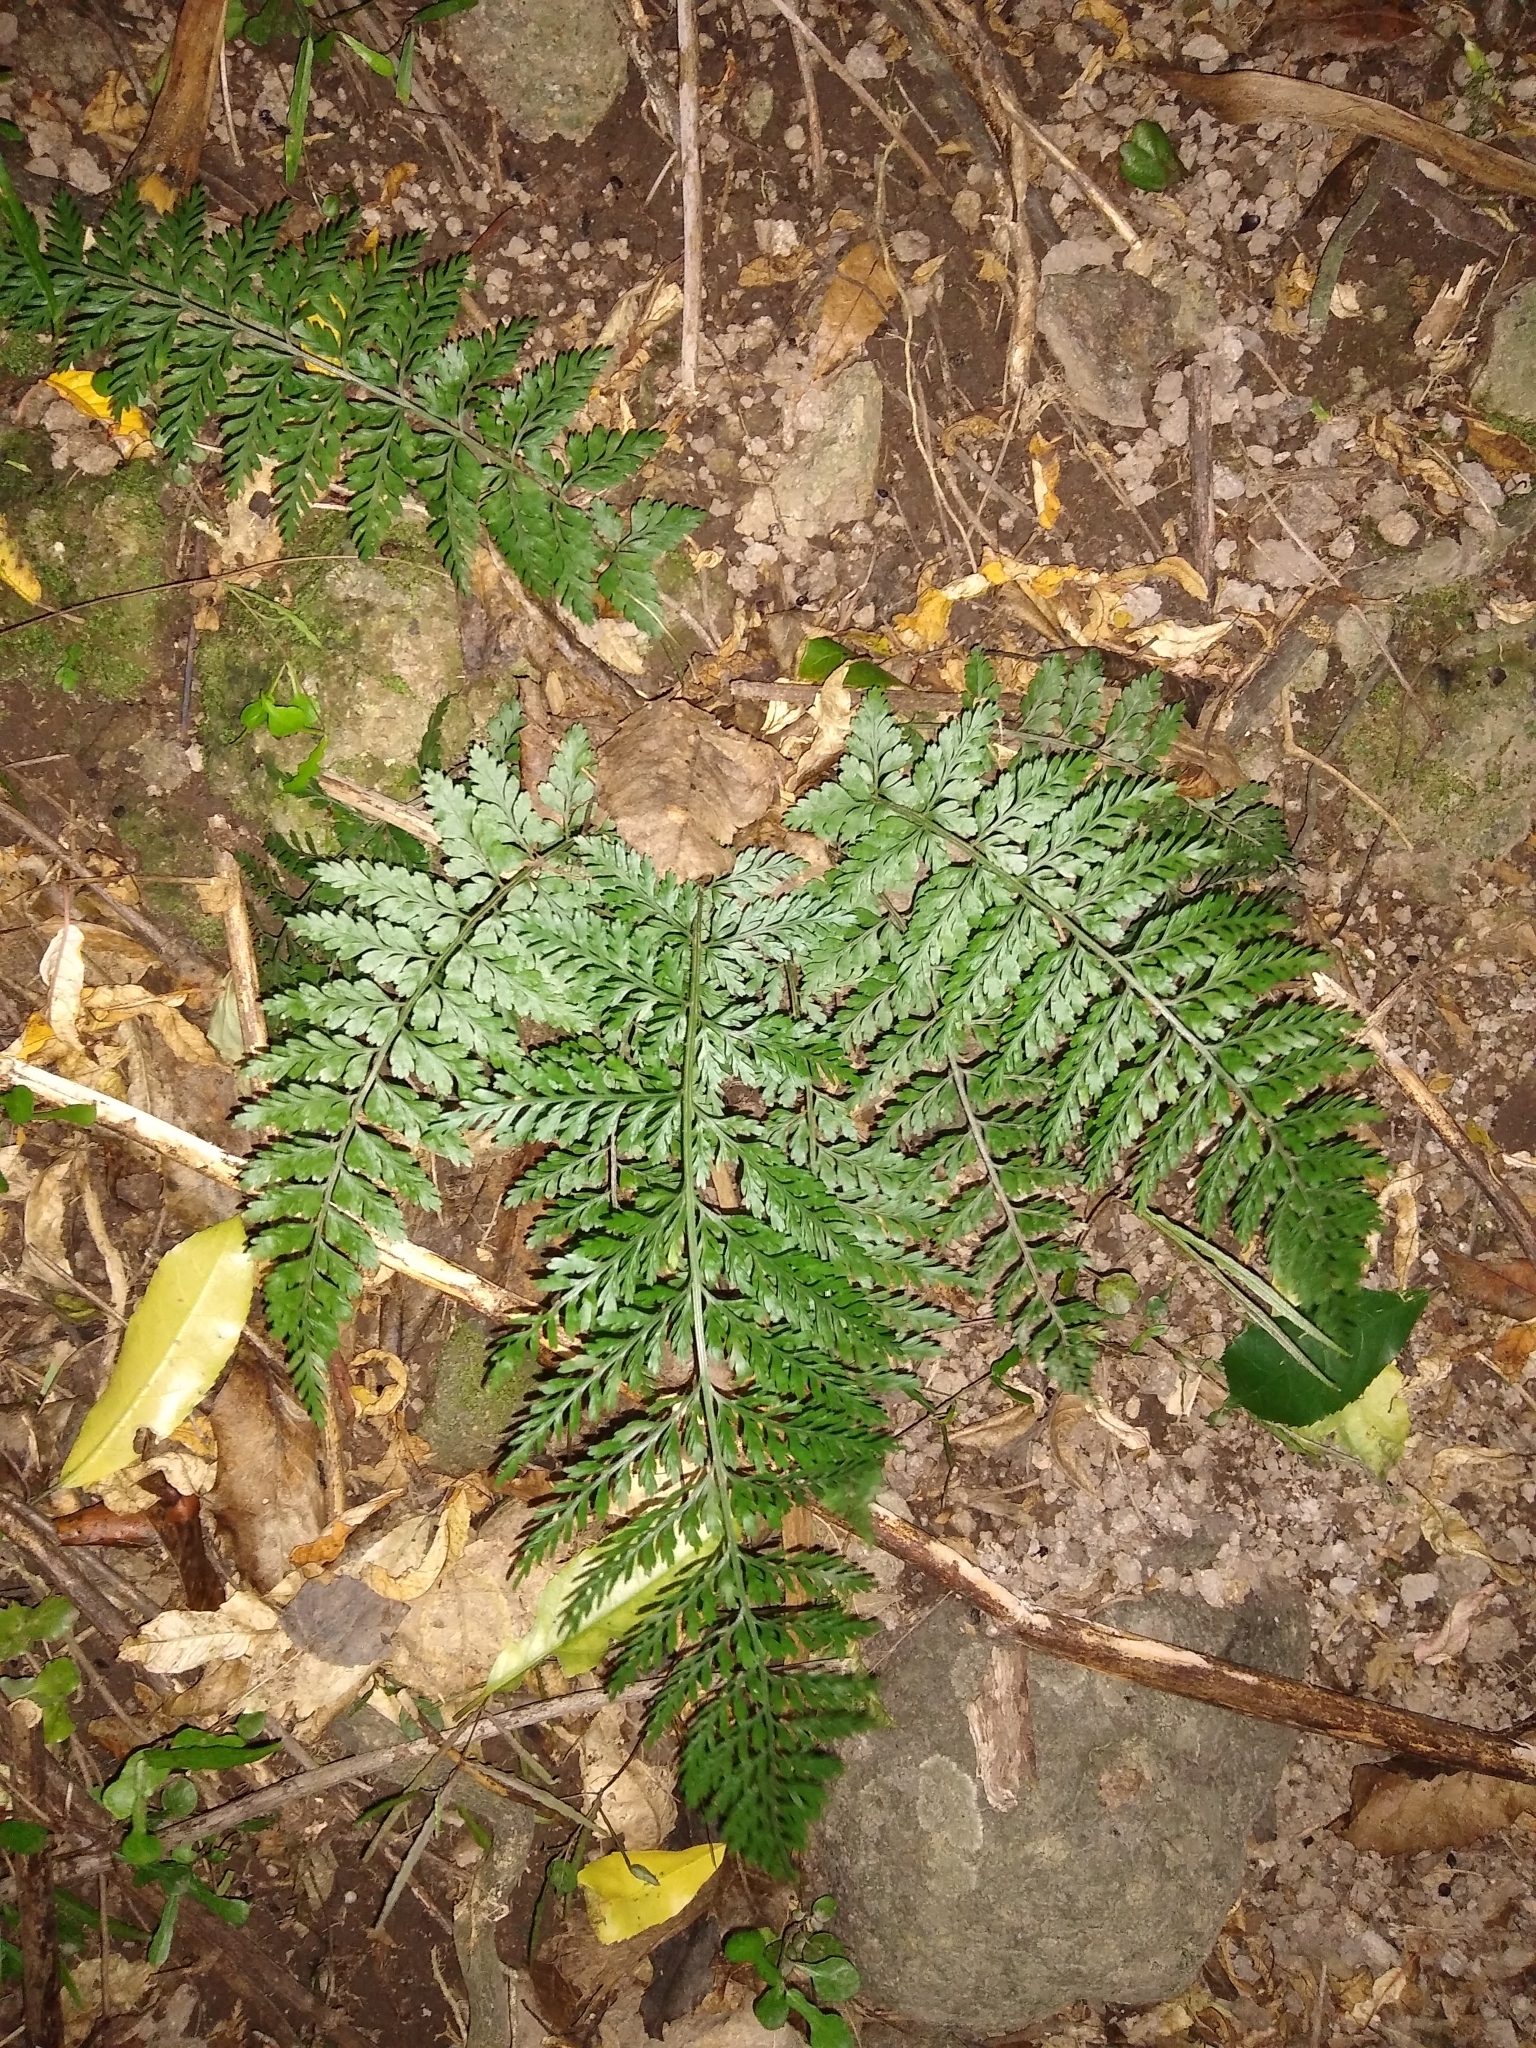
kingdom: Plantae
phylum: Tracheophyta
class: Polypodiopsida
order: Polypodiales
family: Aspleniaceae
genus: Asplenium
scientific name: Asplenium
